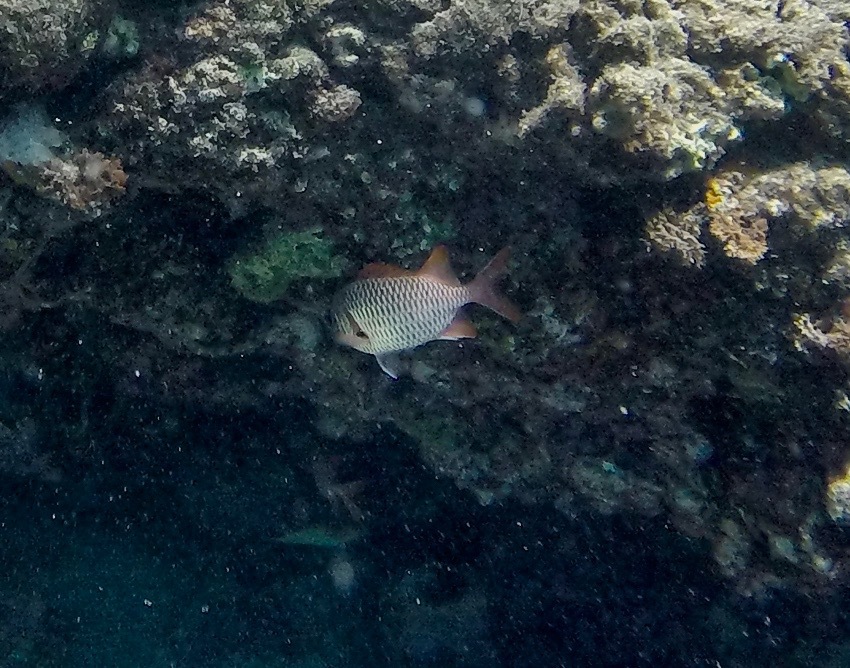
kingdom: Animalia
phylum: Chordata
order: Beryciformes
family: Holocentridae
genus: Myripristis
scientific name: Myripristis violacea
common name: Lattice soldierfish
